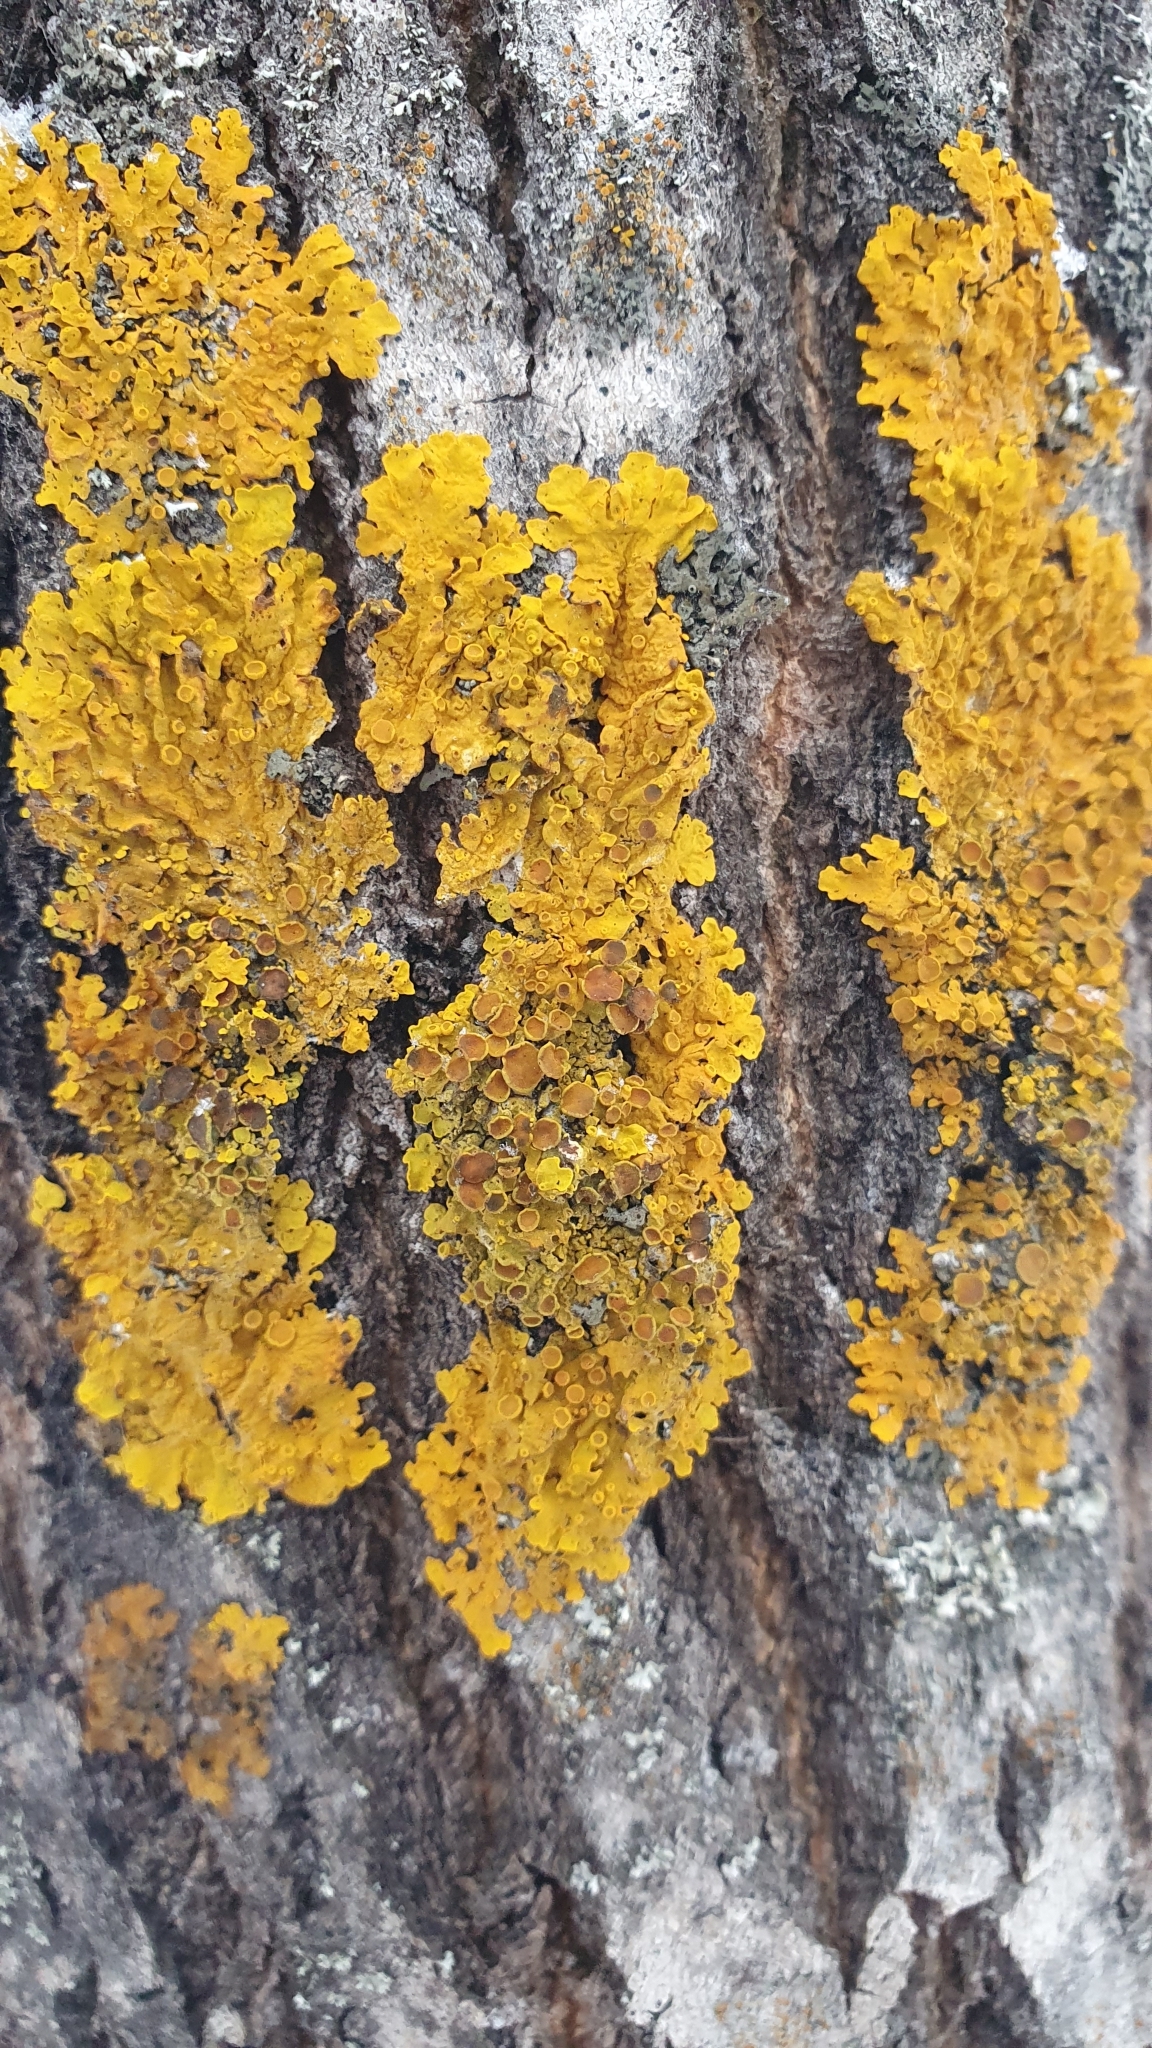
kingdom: Fungi
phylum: Ascomycota
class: Lecanoromycetes
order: Teloschistales
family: Teloschistaceae
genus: Xanthoria
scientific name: Xanthoria parietina
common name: Common orange lichen
